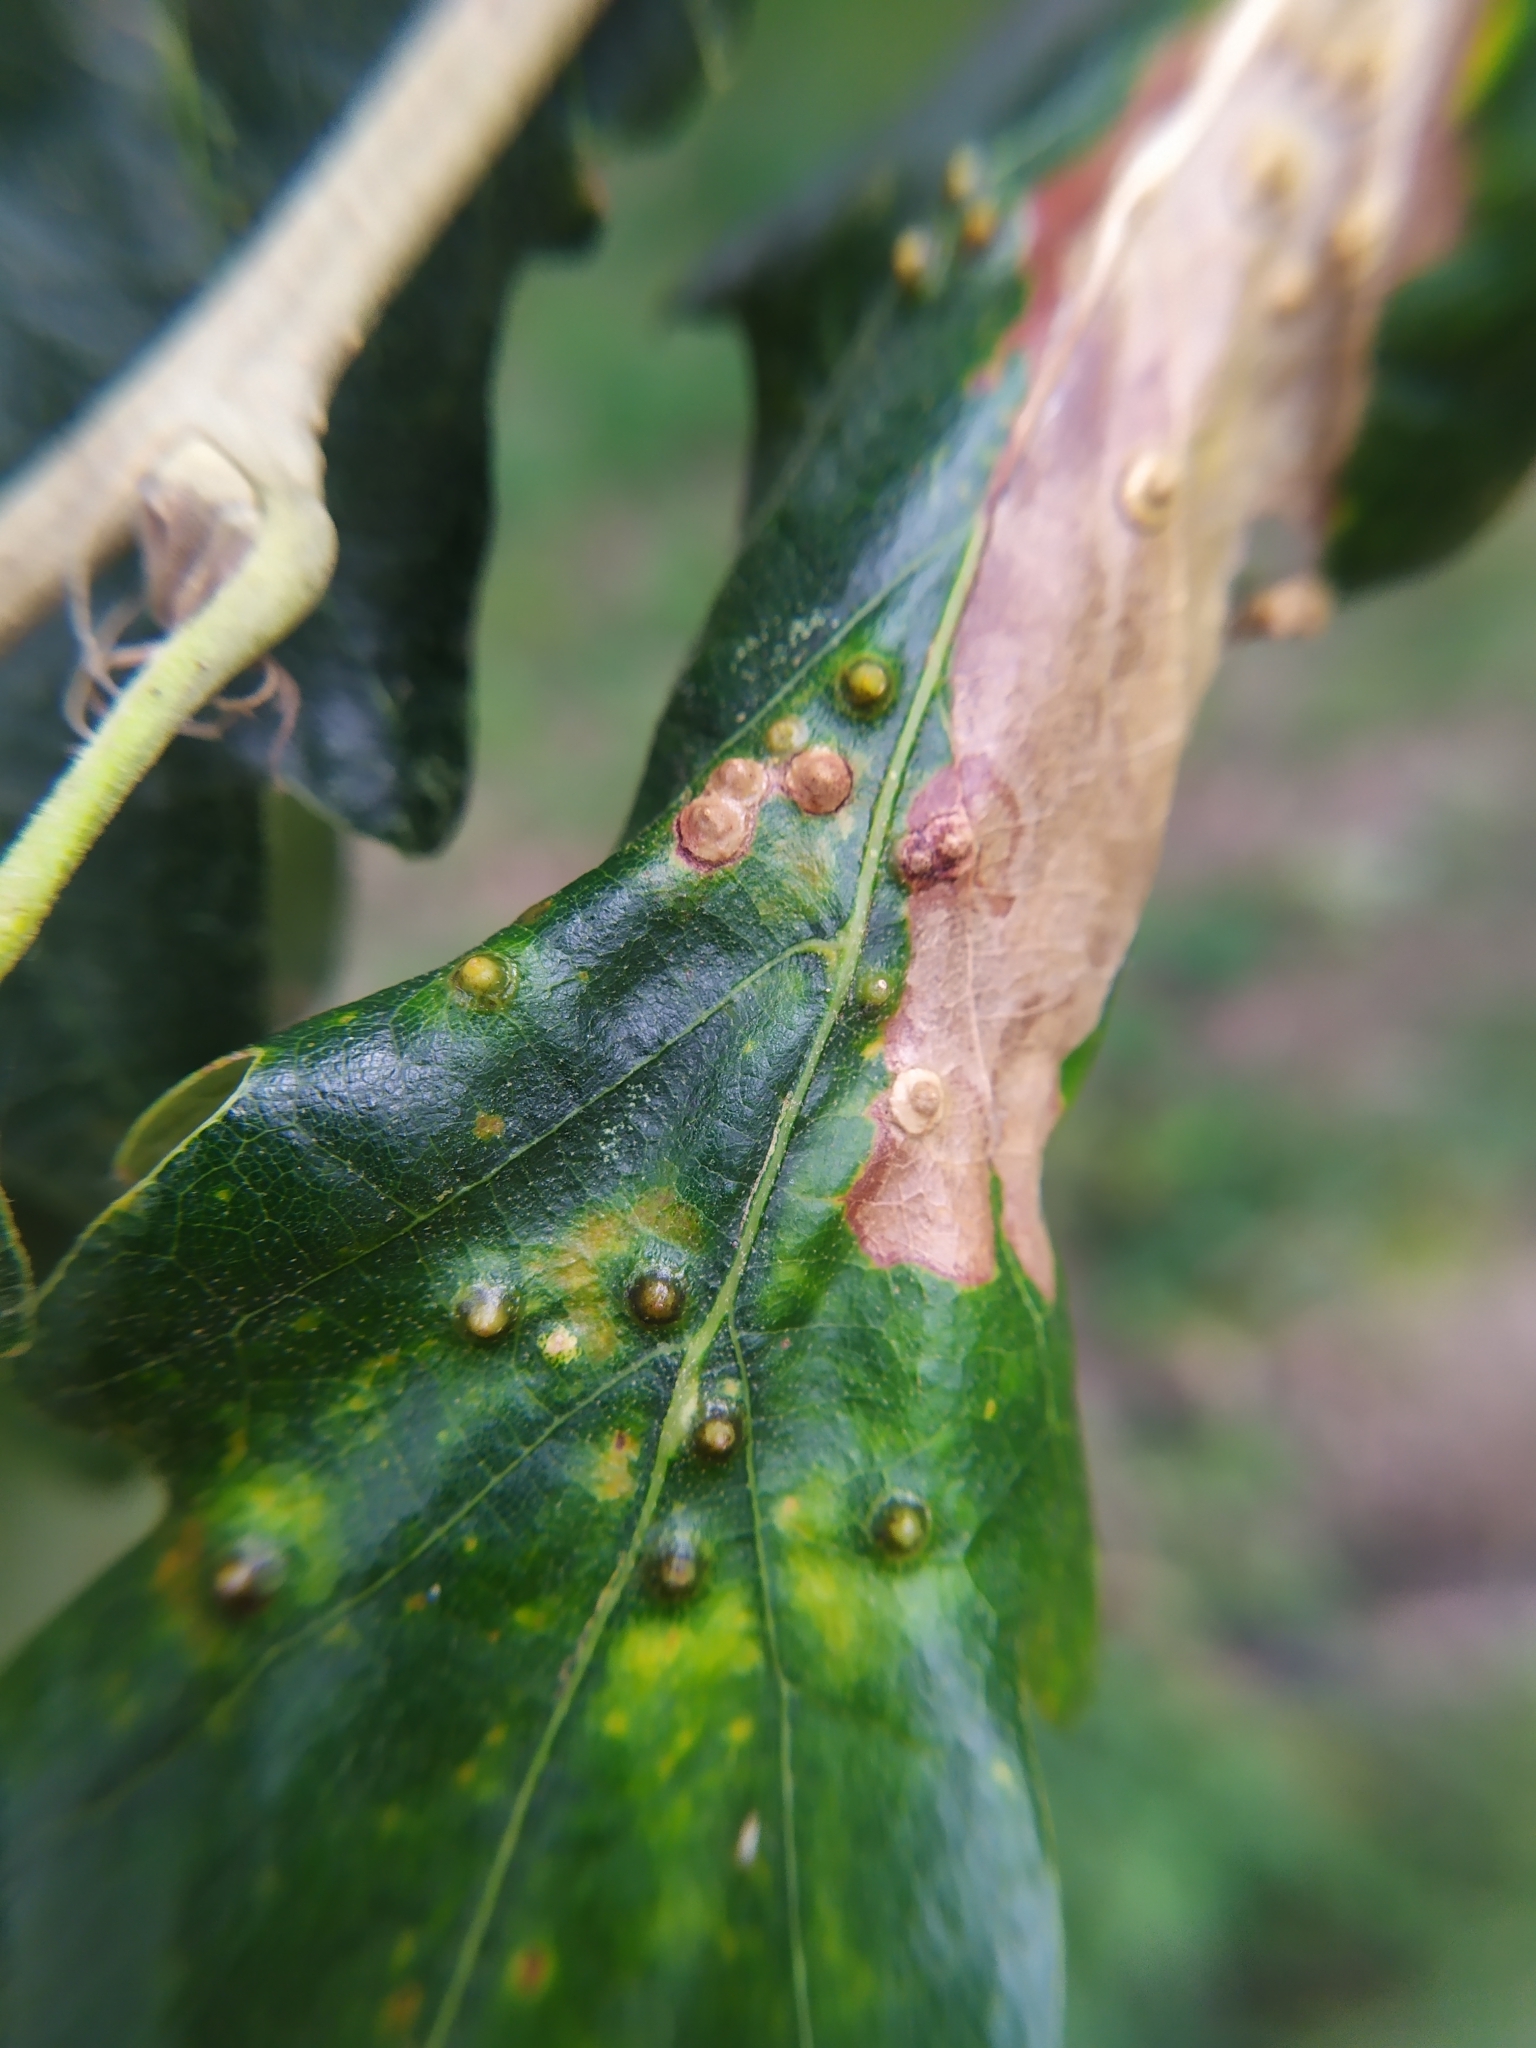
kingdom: Animalia
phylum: Arthropoda
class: Insecta
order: Diptera
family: Cecidomyiidae
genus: Dryomyia
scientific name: Dryomyia circinans
